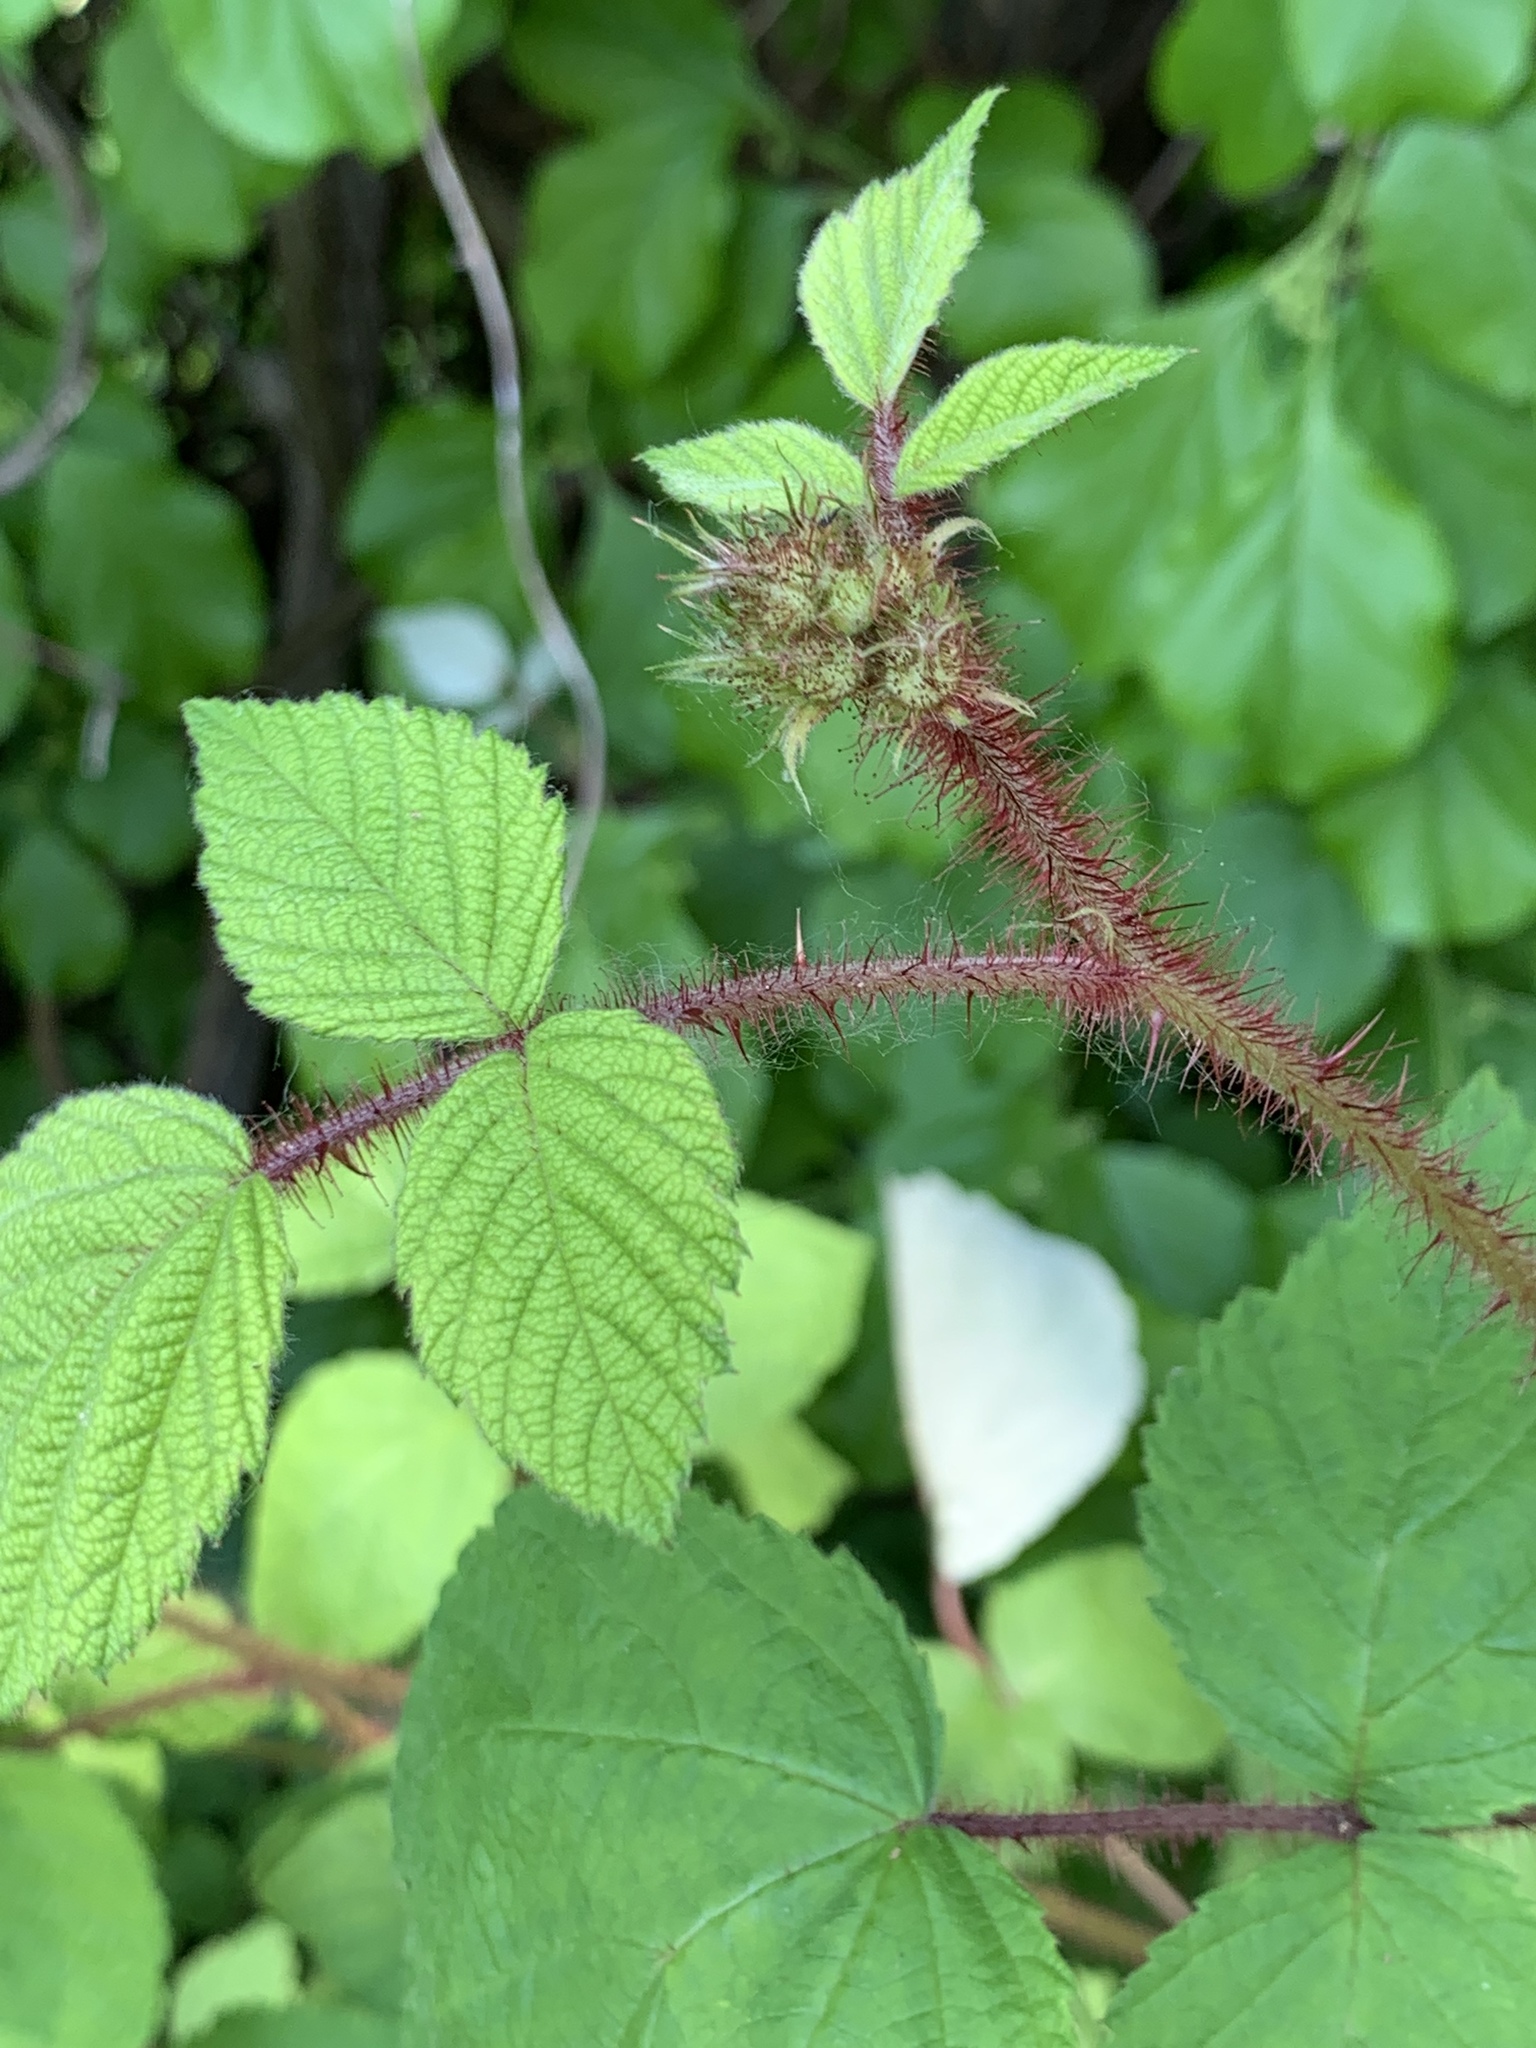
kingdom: Plantae
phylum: Tracheophyta
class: Magnoliopsida
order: Rosales
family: Rosaceae
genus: Rubus
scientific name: Rubus phoenicolasius
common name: Japanese wineberry
